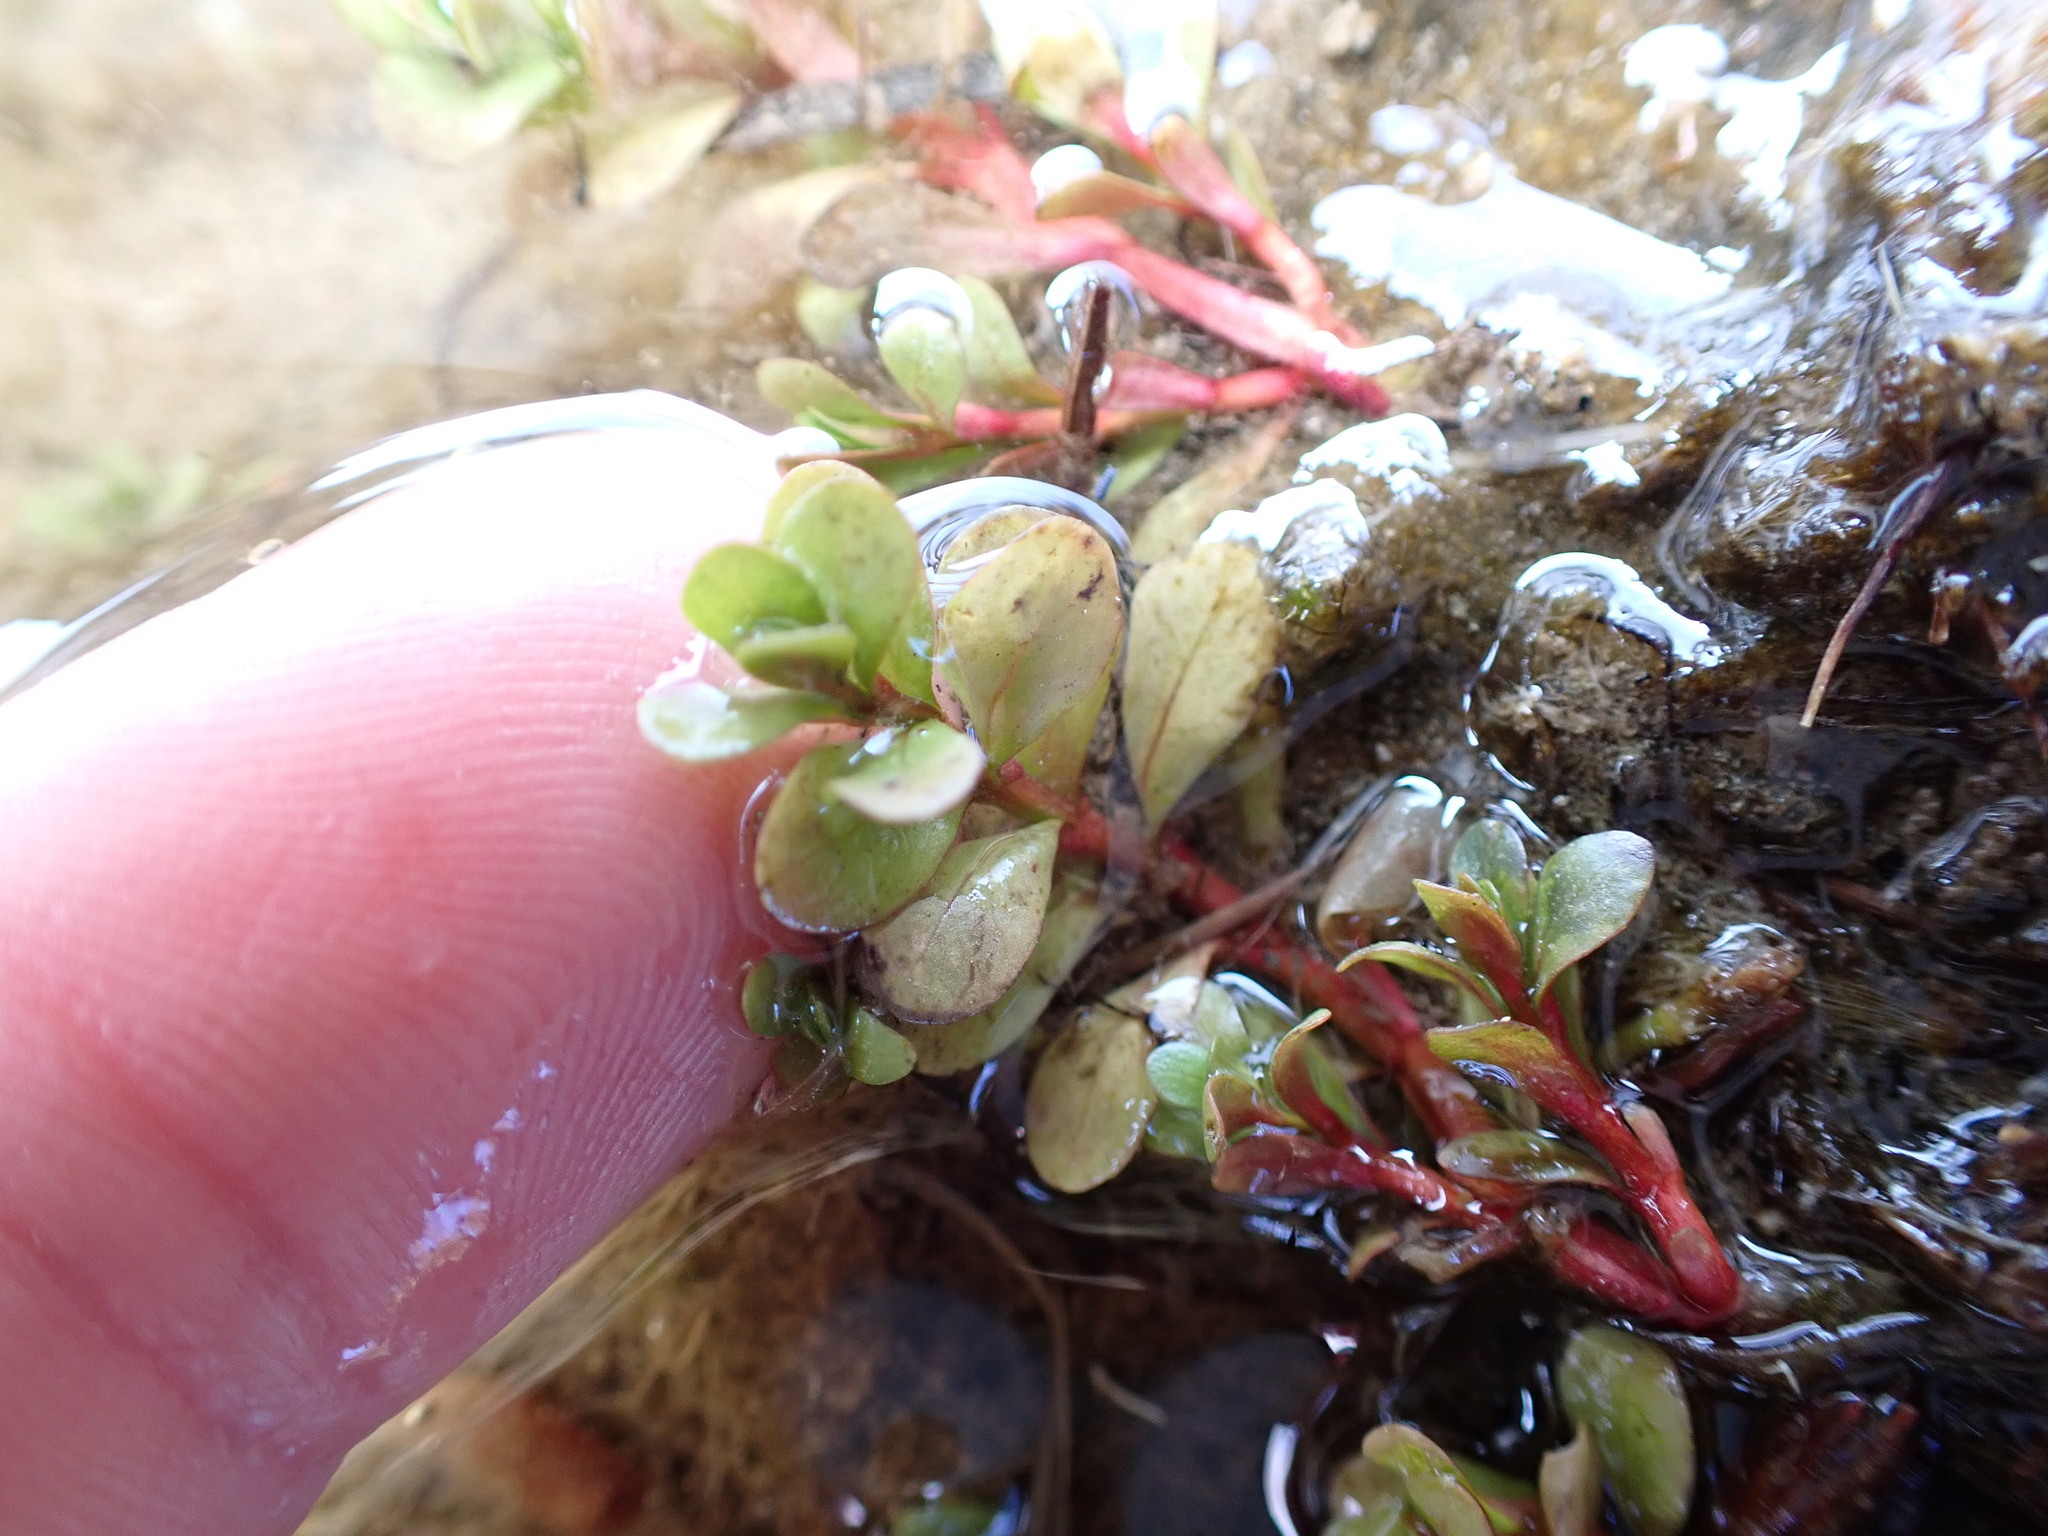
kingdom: Plantae
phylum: Tracheophyta
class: Magnoliopsida
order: Myrtales
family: Lythraceae
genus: Lythrum
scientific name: Lythrum portula
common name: Water purslane
